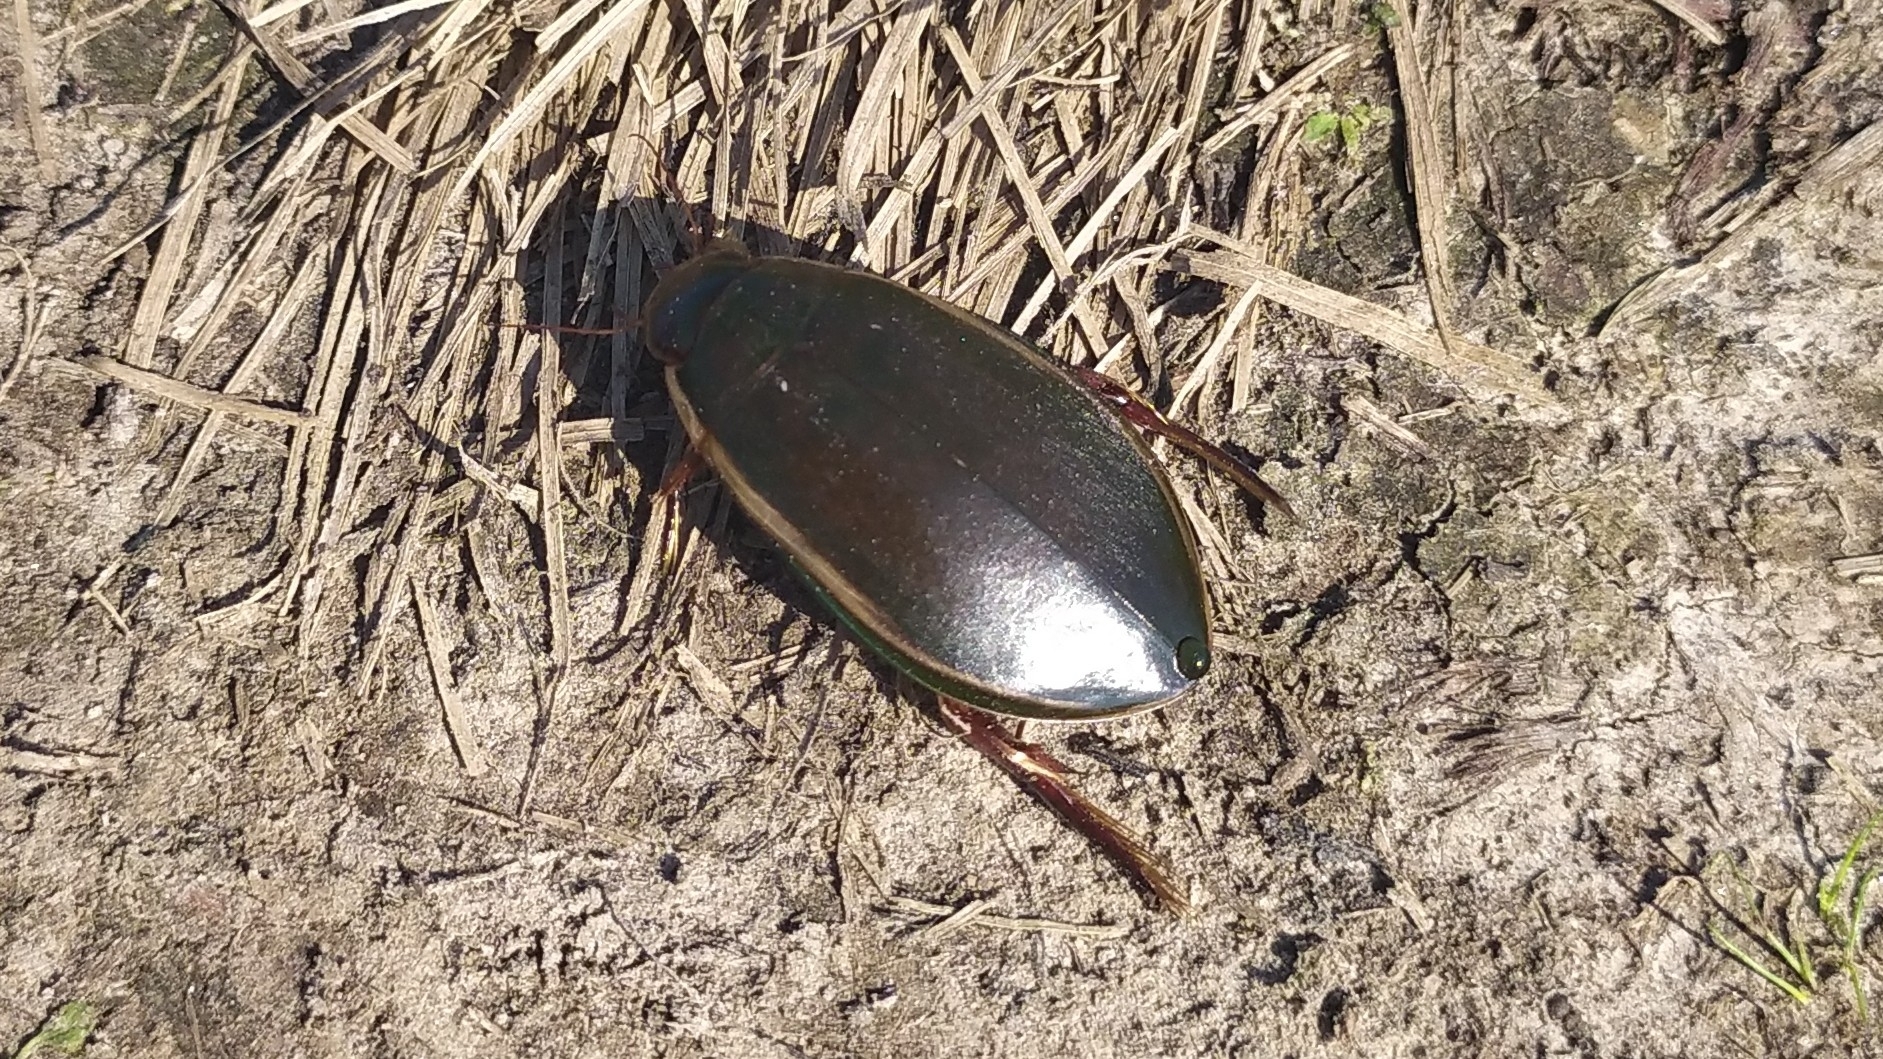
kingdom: Animalia
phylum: Arthropoda
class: Insecta
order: Coleoptera
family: Dytiscidae
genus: Cybister
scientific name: Cybister lateralimarginalis
